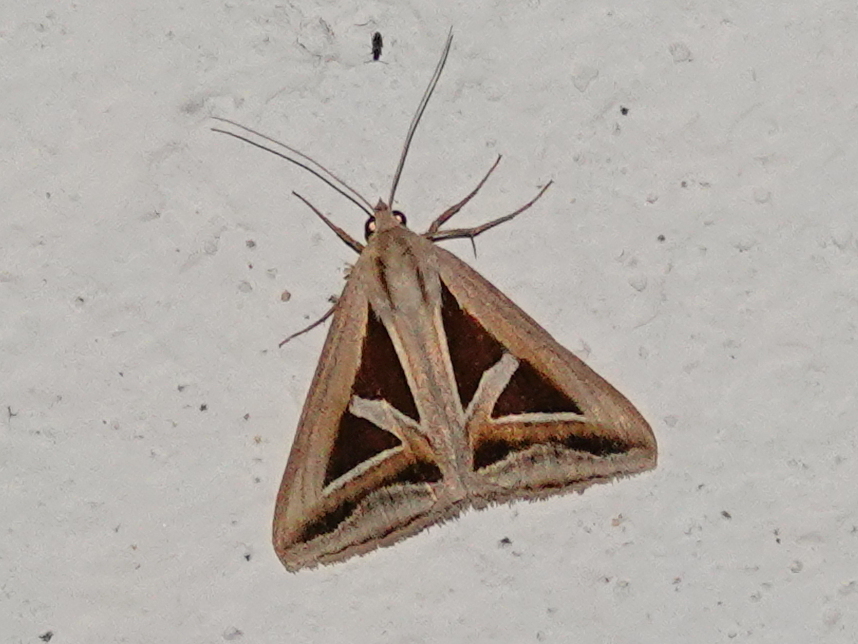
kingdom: Animalia
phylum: Arthropoda
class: Insecta
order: Lepidoptera
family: Erebidae
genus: Trigonodes
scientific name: Trigonodes hyppasia
